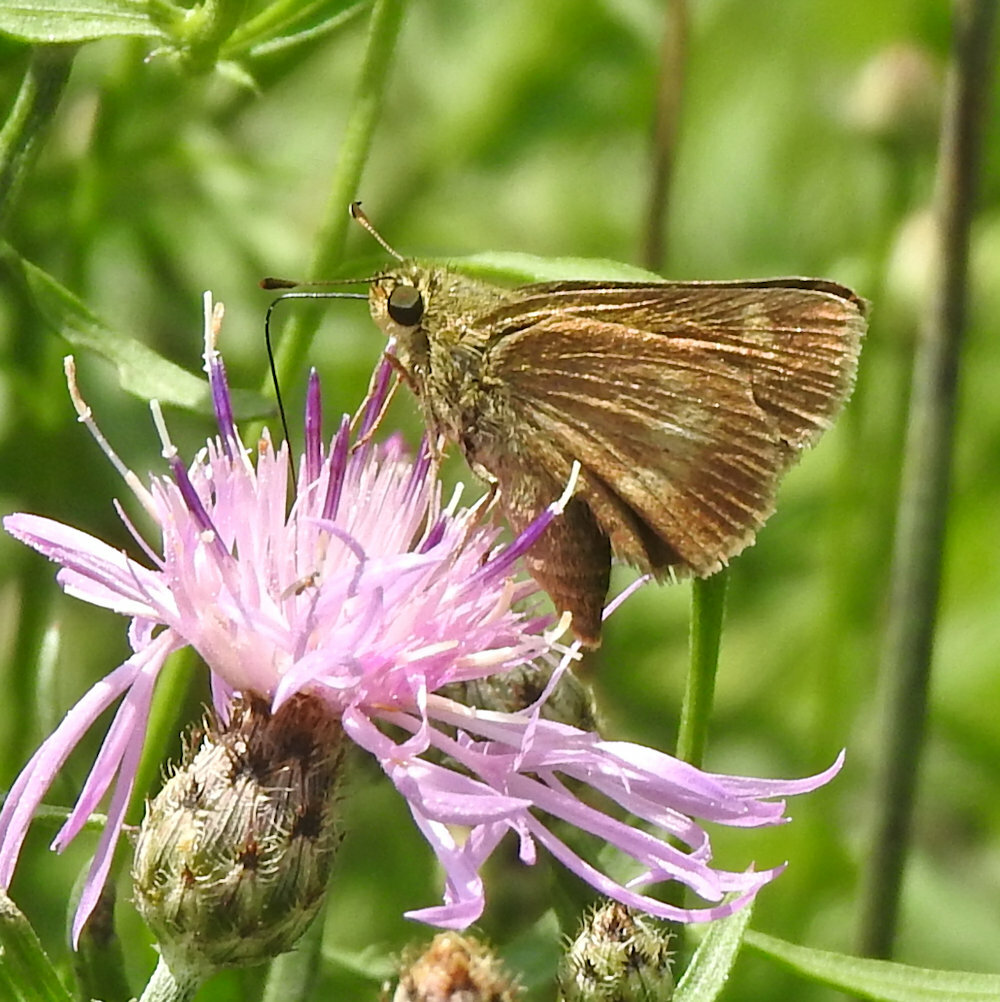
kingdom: Animalia
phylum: Arthropoda
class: Insecta
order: Lepidoptera
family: Hesperiidae
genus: Polites
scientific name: Polites egeremet
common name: Northern broken-dash
